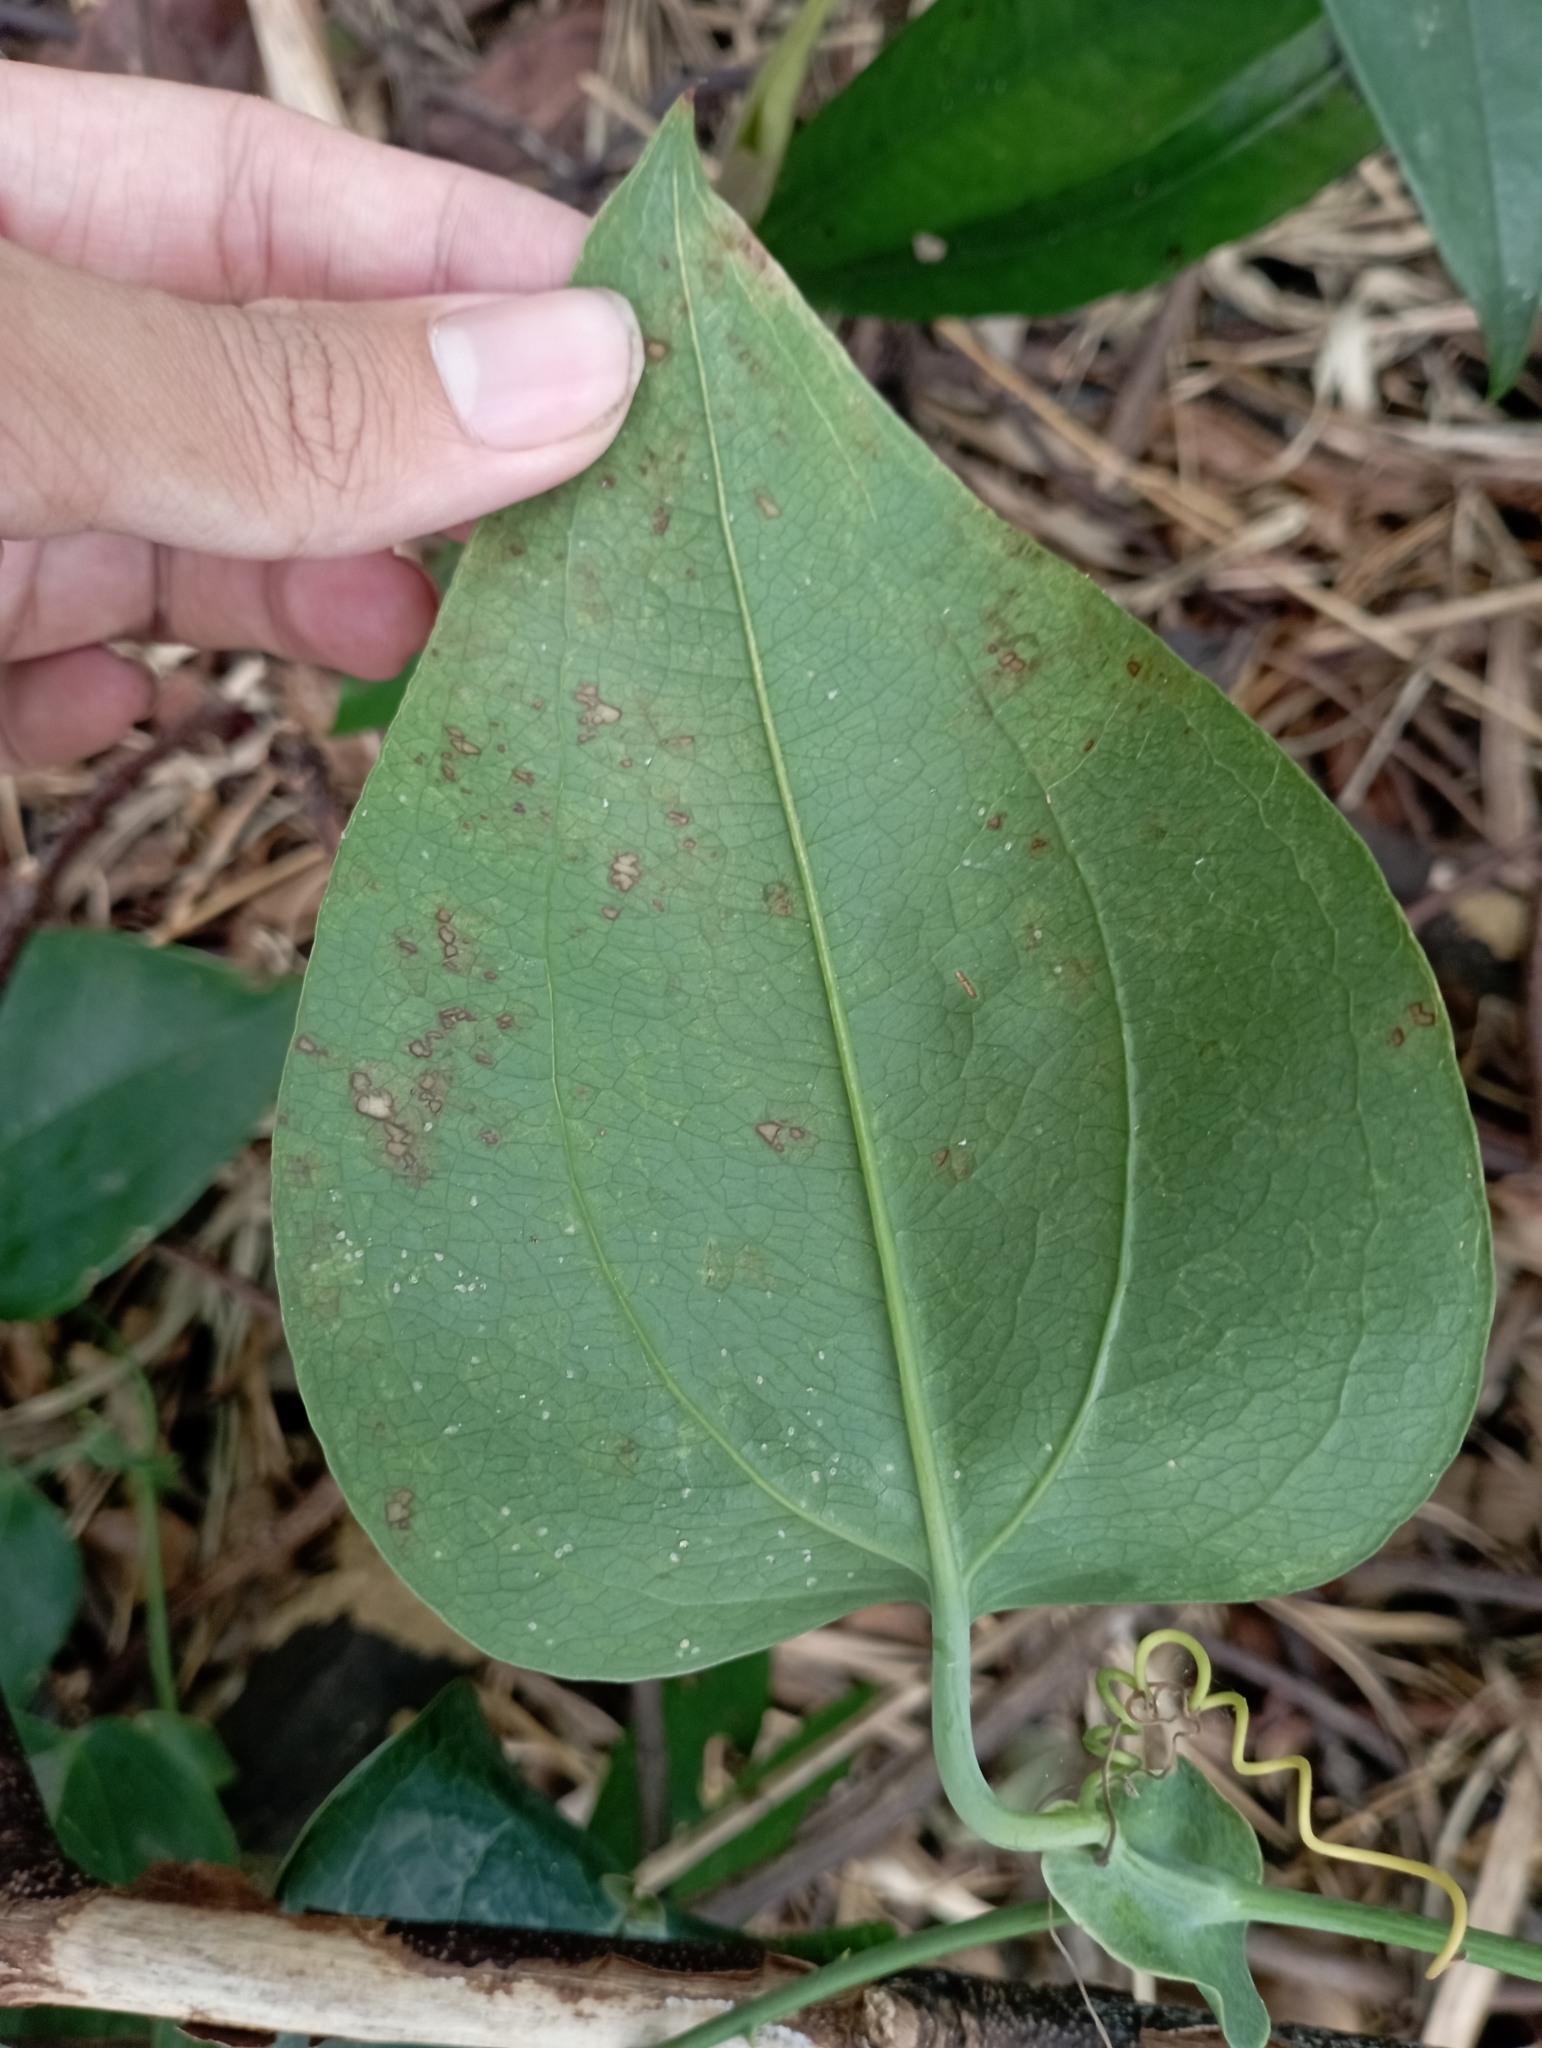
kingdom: Plantae
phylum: Tracheophyta
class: Liliopsida
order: Liliales
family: Smilacaceae
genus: Smilax
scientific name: Smilax ocreata
